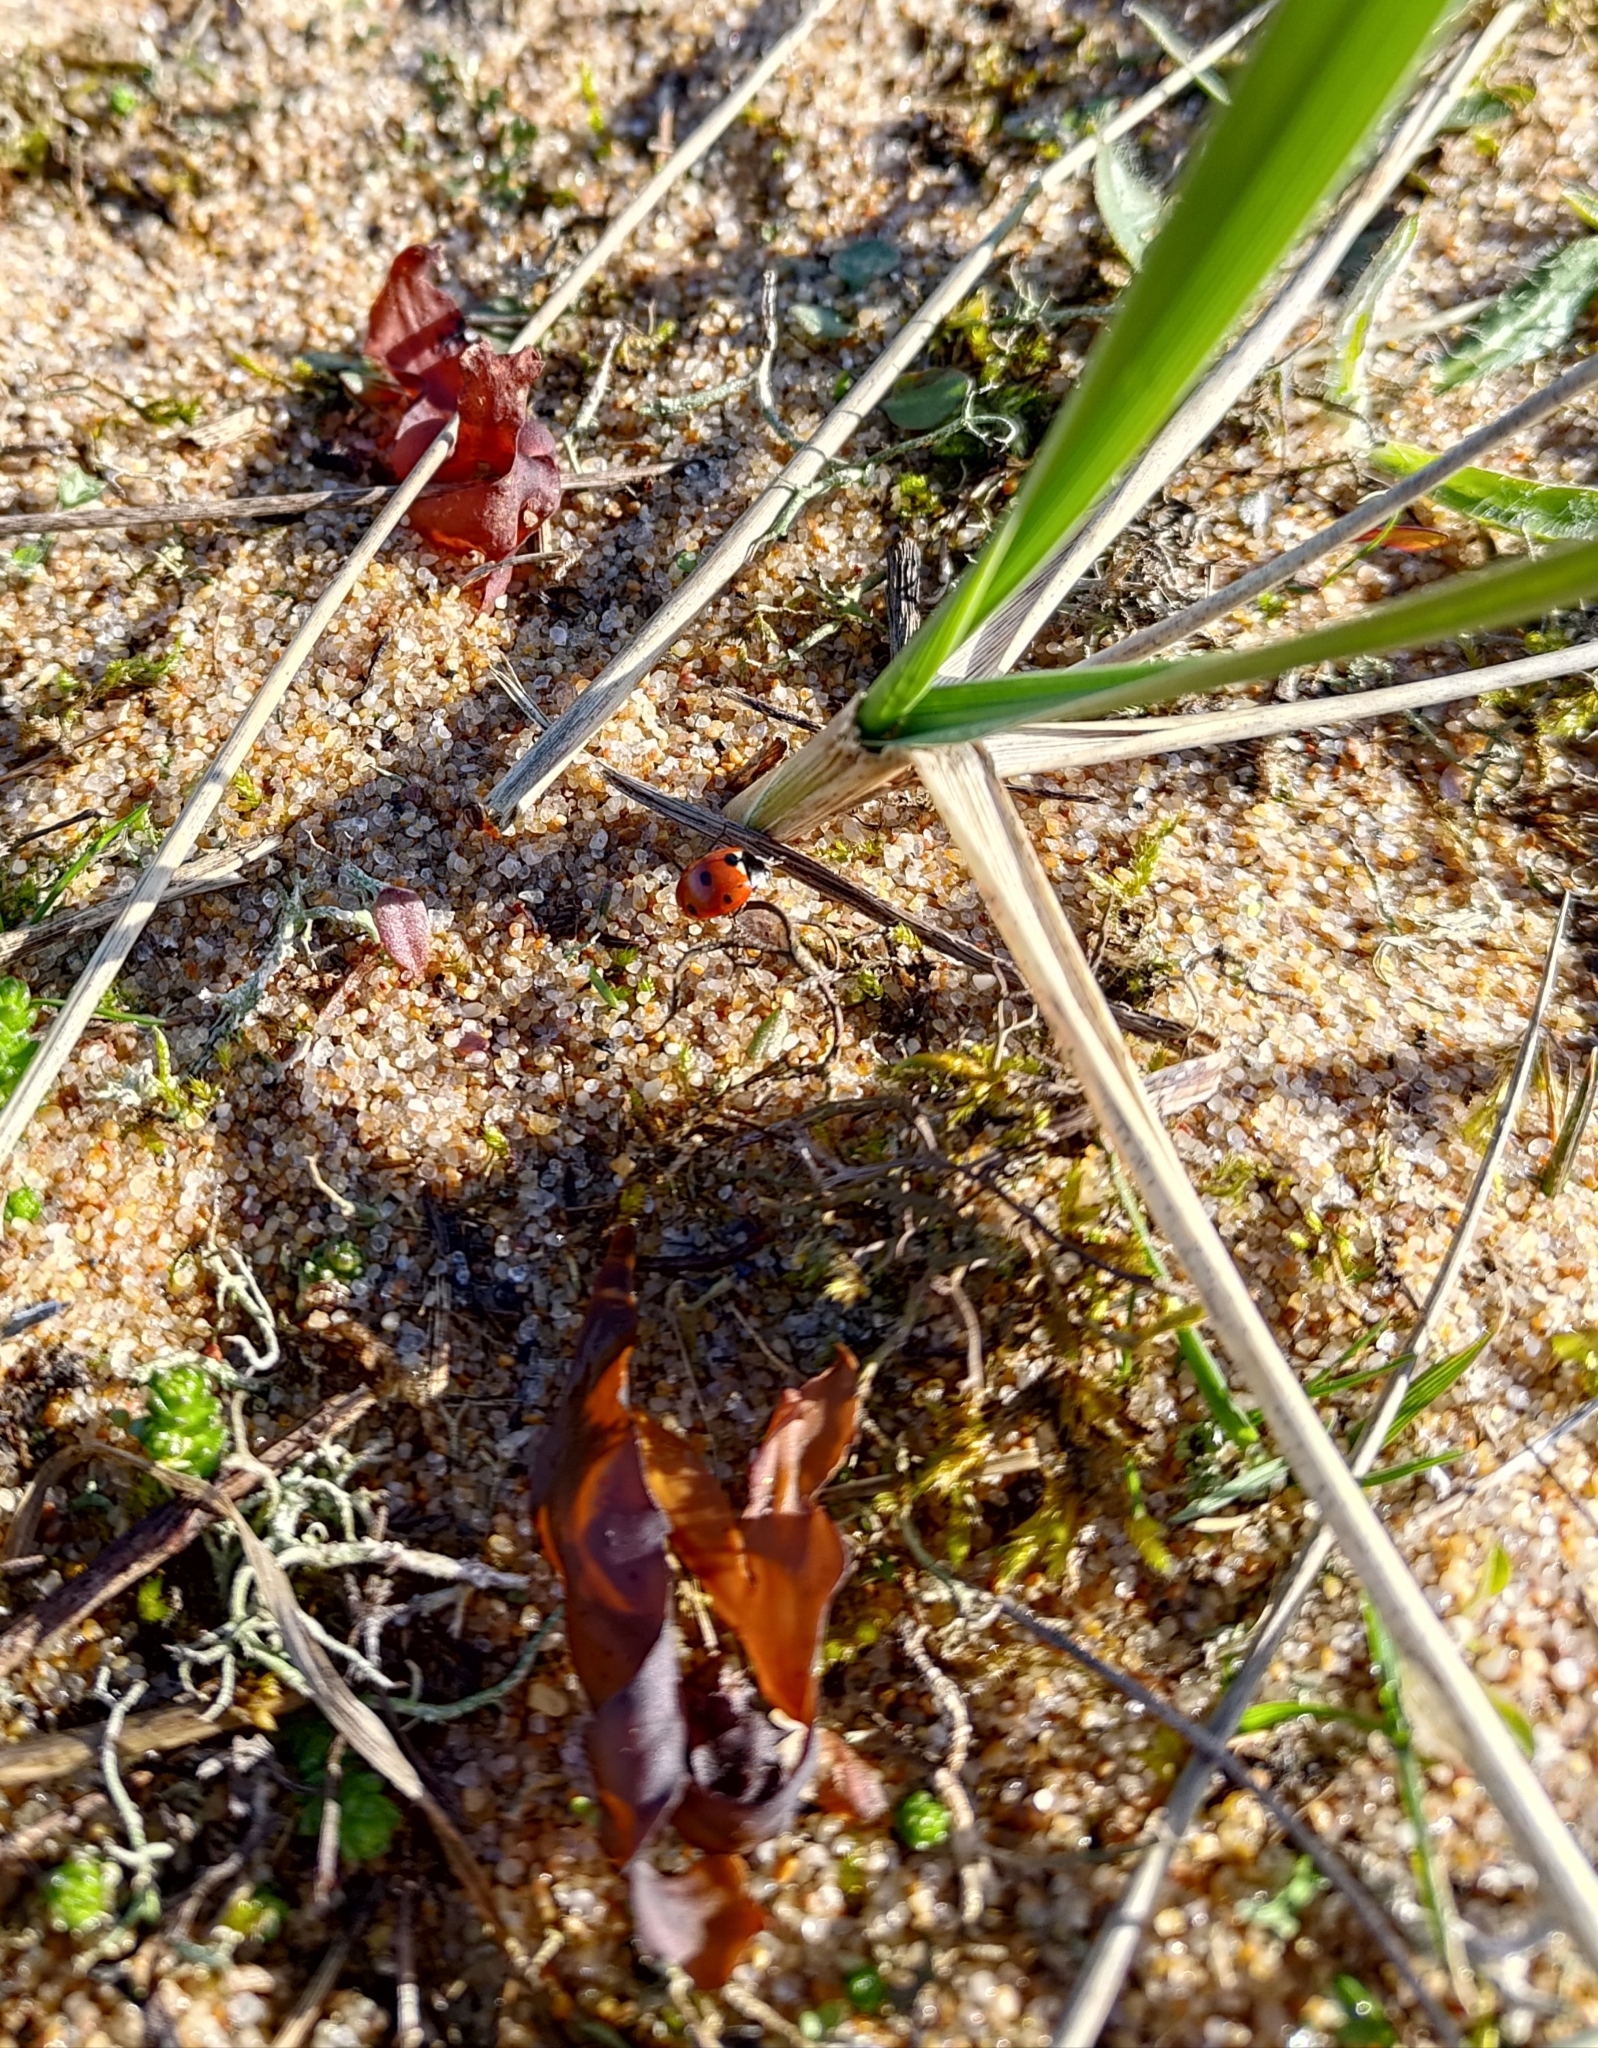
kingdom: Animalia
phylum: Arthropoda
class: Insecta
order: Coleoptera
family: Coccinellidae
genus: Coccinella
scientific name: Coccinella septempunctata
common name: Sevenspotted lady beetle
